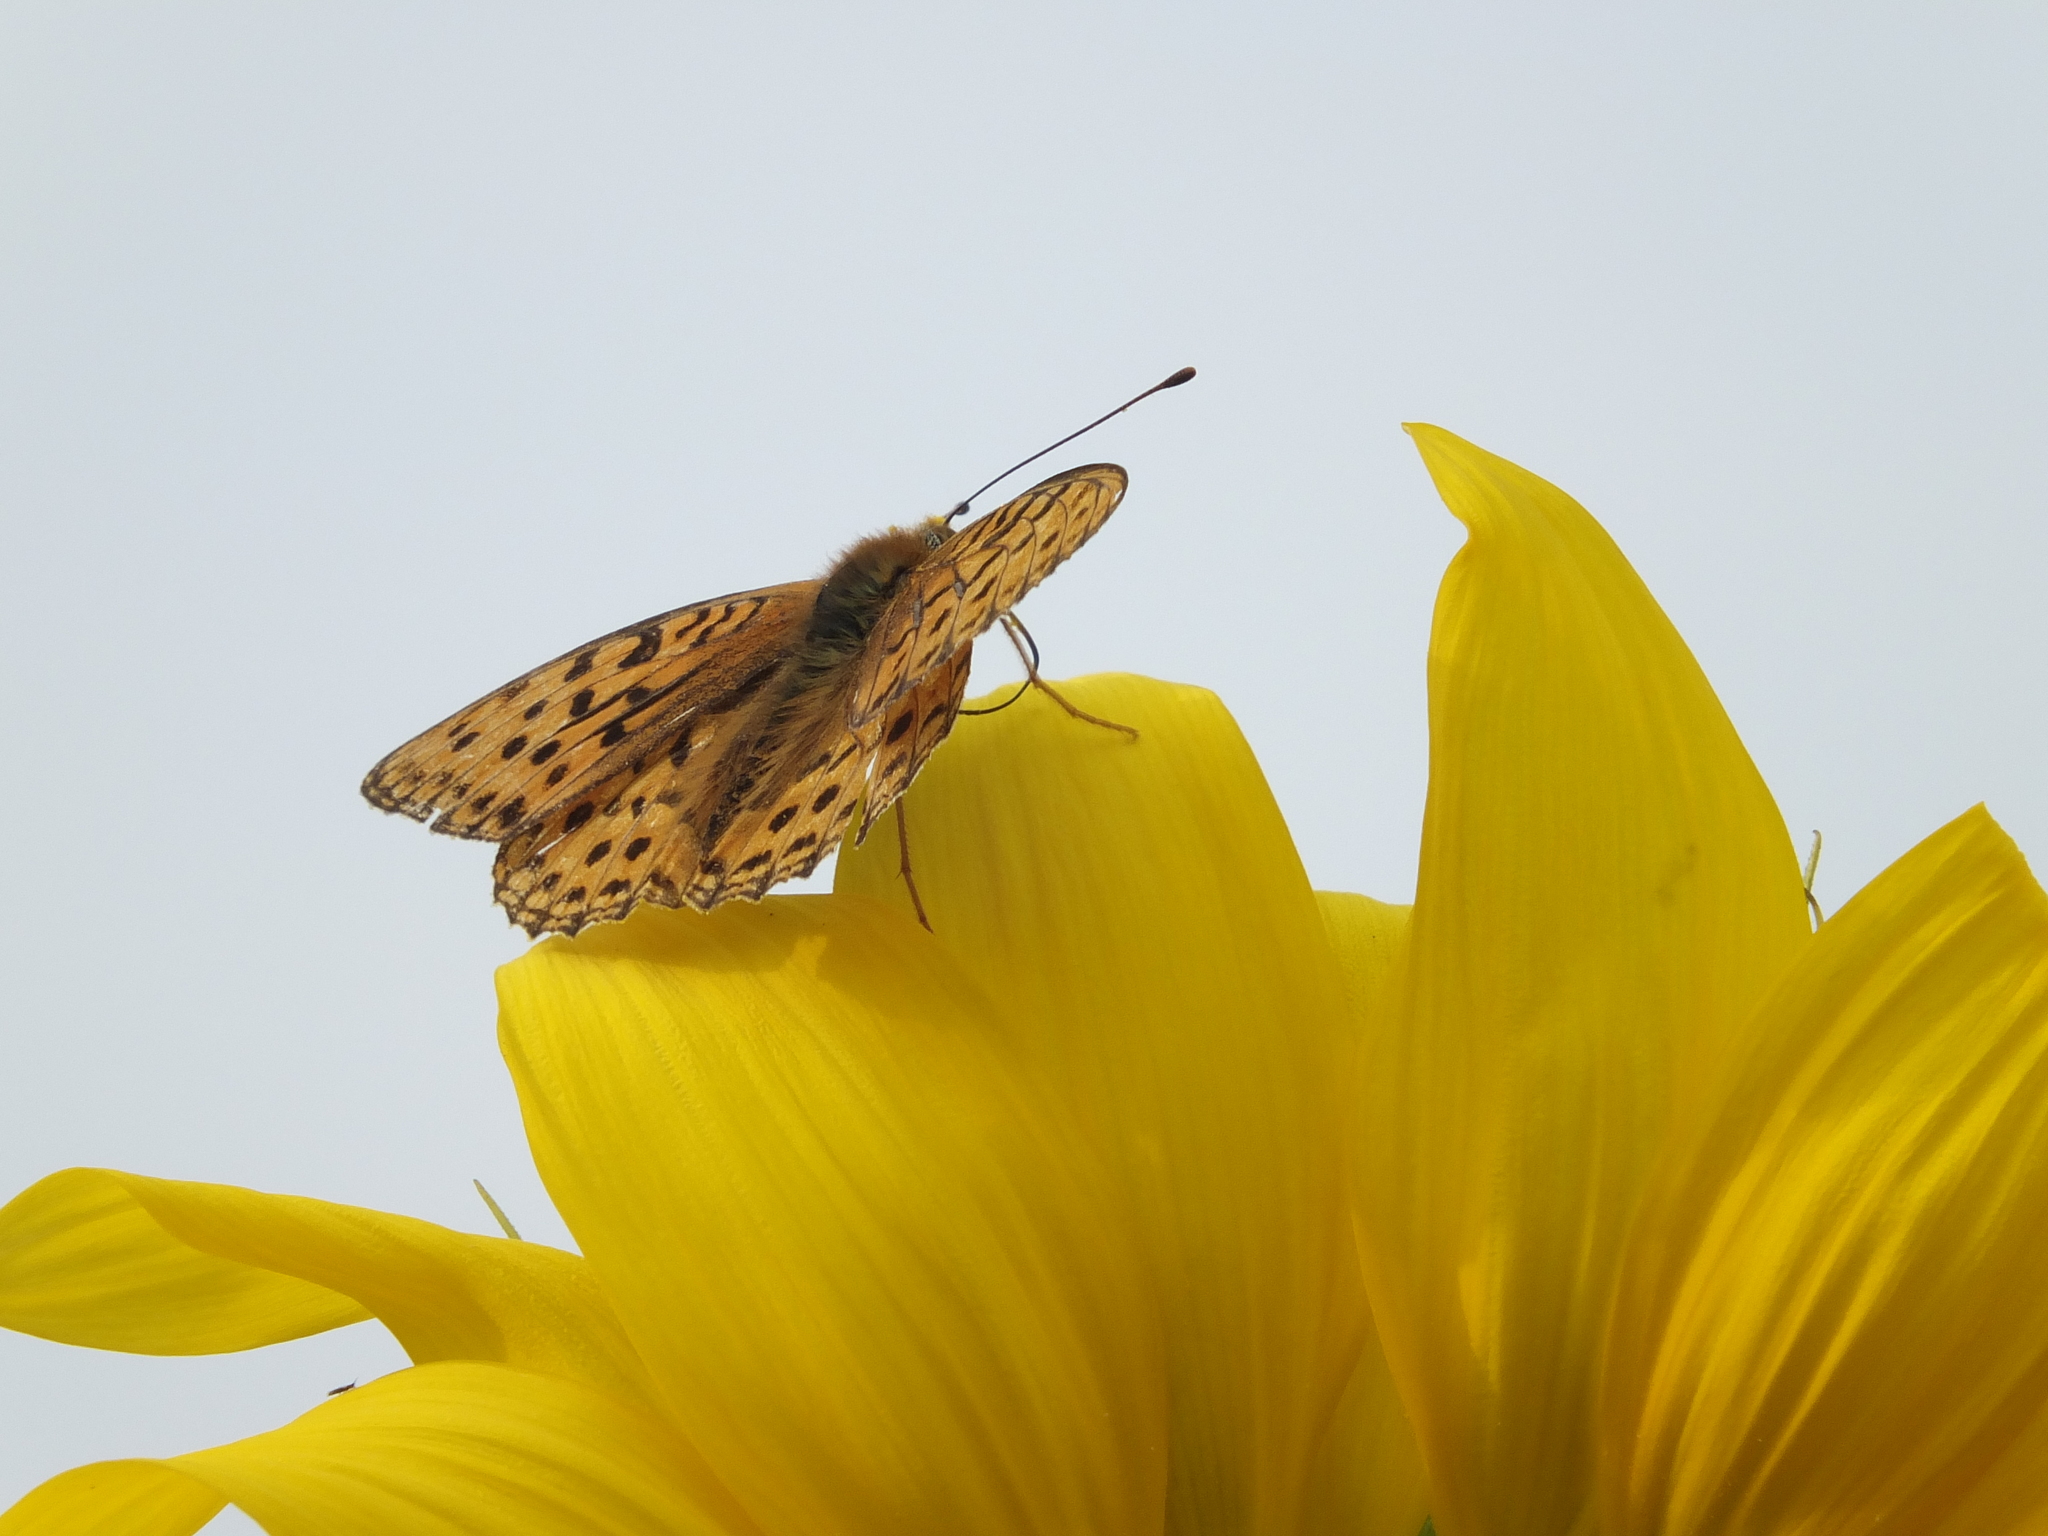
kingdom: Animalia
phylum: Arthropoda
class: Insecta
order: Lepidoptera
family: Nymphalidae
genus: Fabriciana
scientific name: Fabriciana adippe
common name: High brown fritillary
